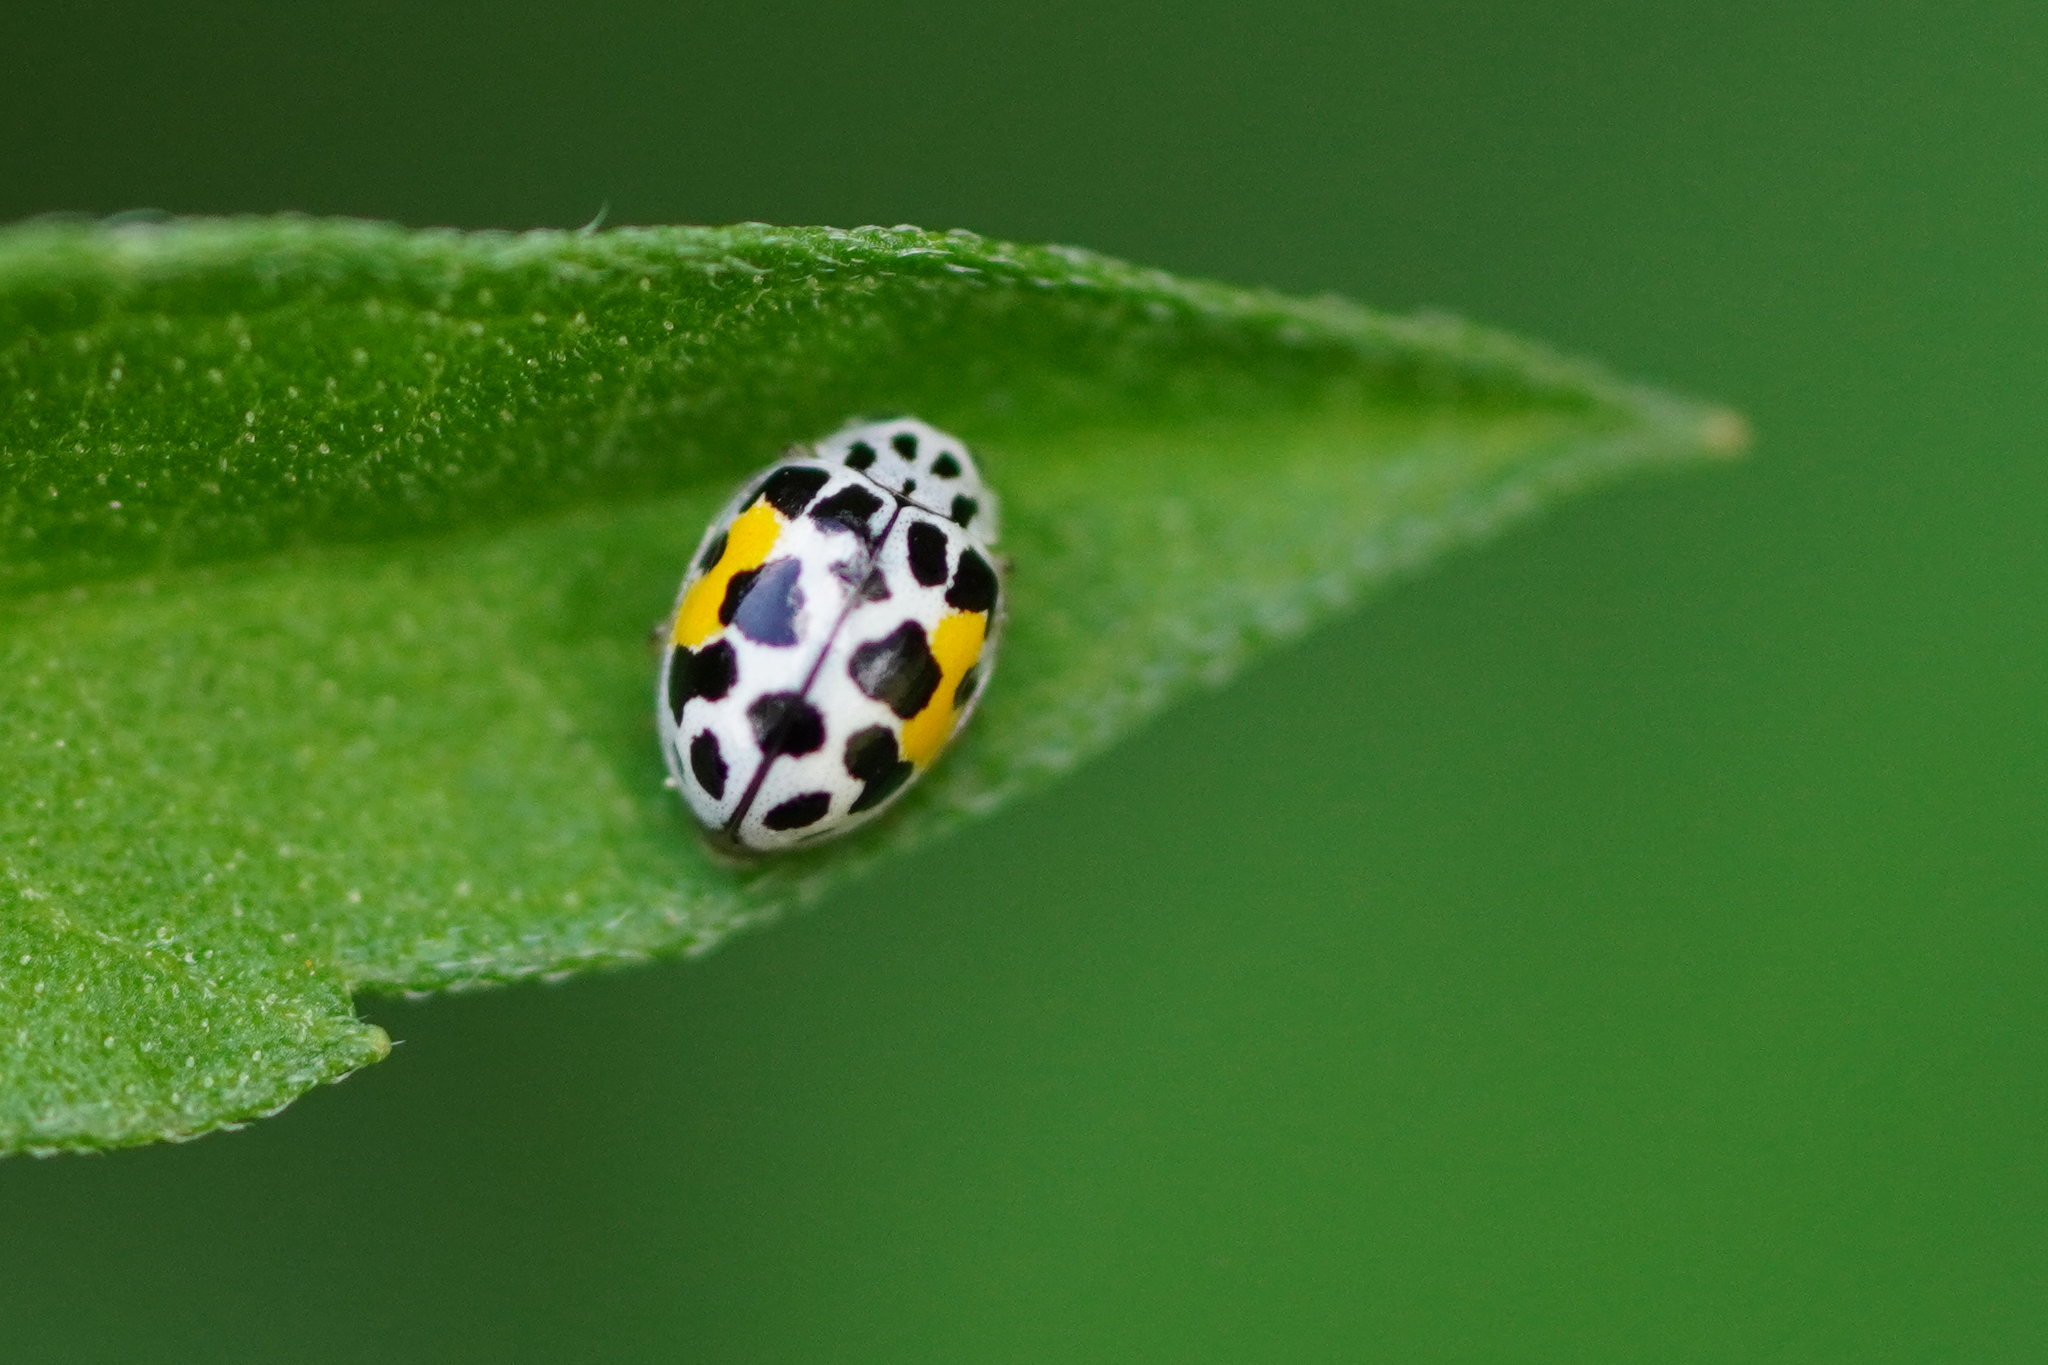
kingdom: Animalia
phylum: Arthropoda
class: Insecta
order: Coleoptera
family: Coccinellidae
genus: Psyllobora
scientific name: Psyllobora nana
